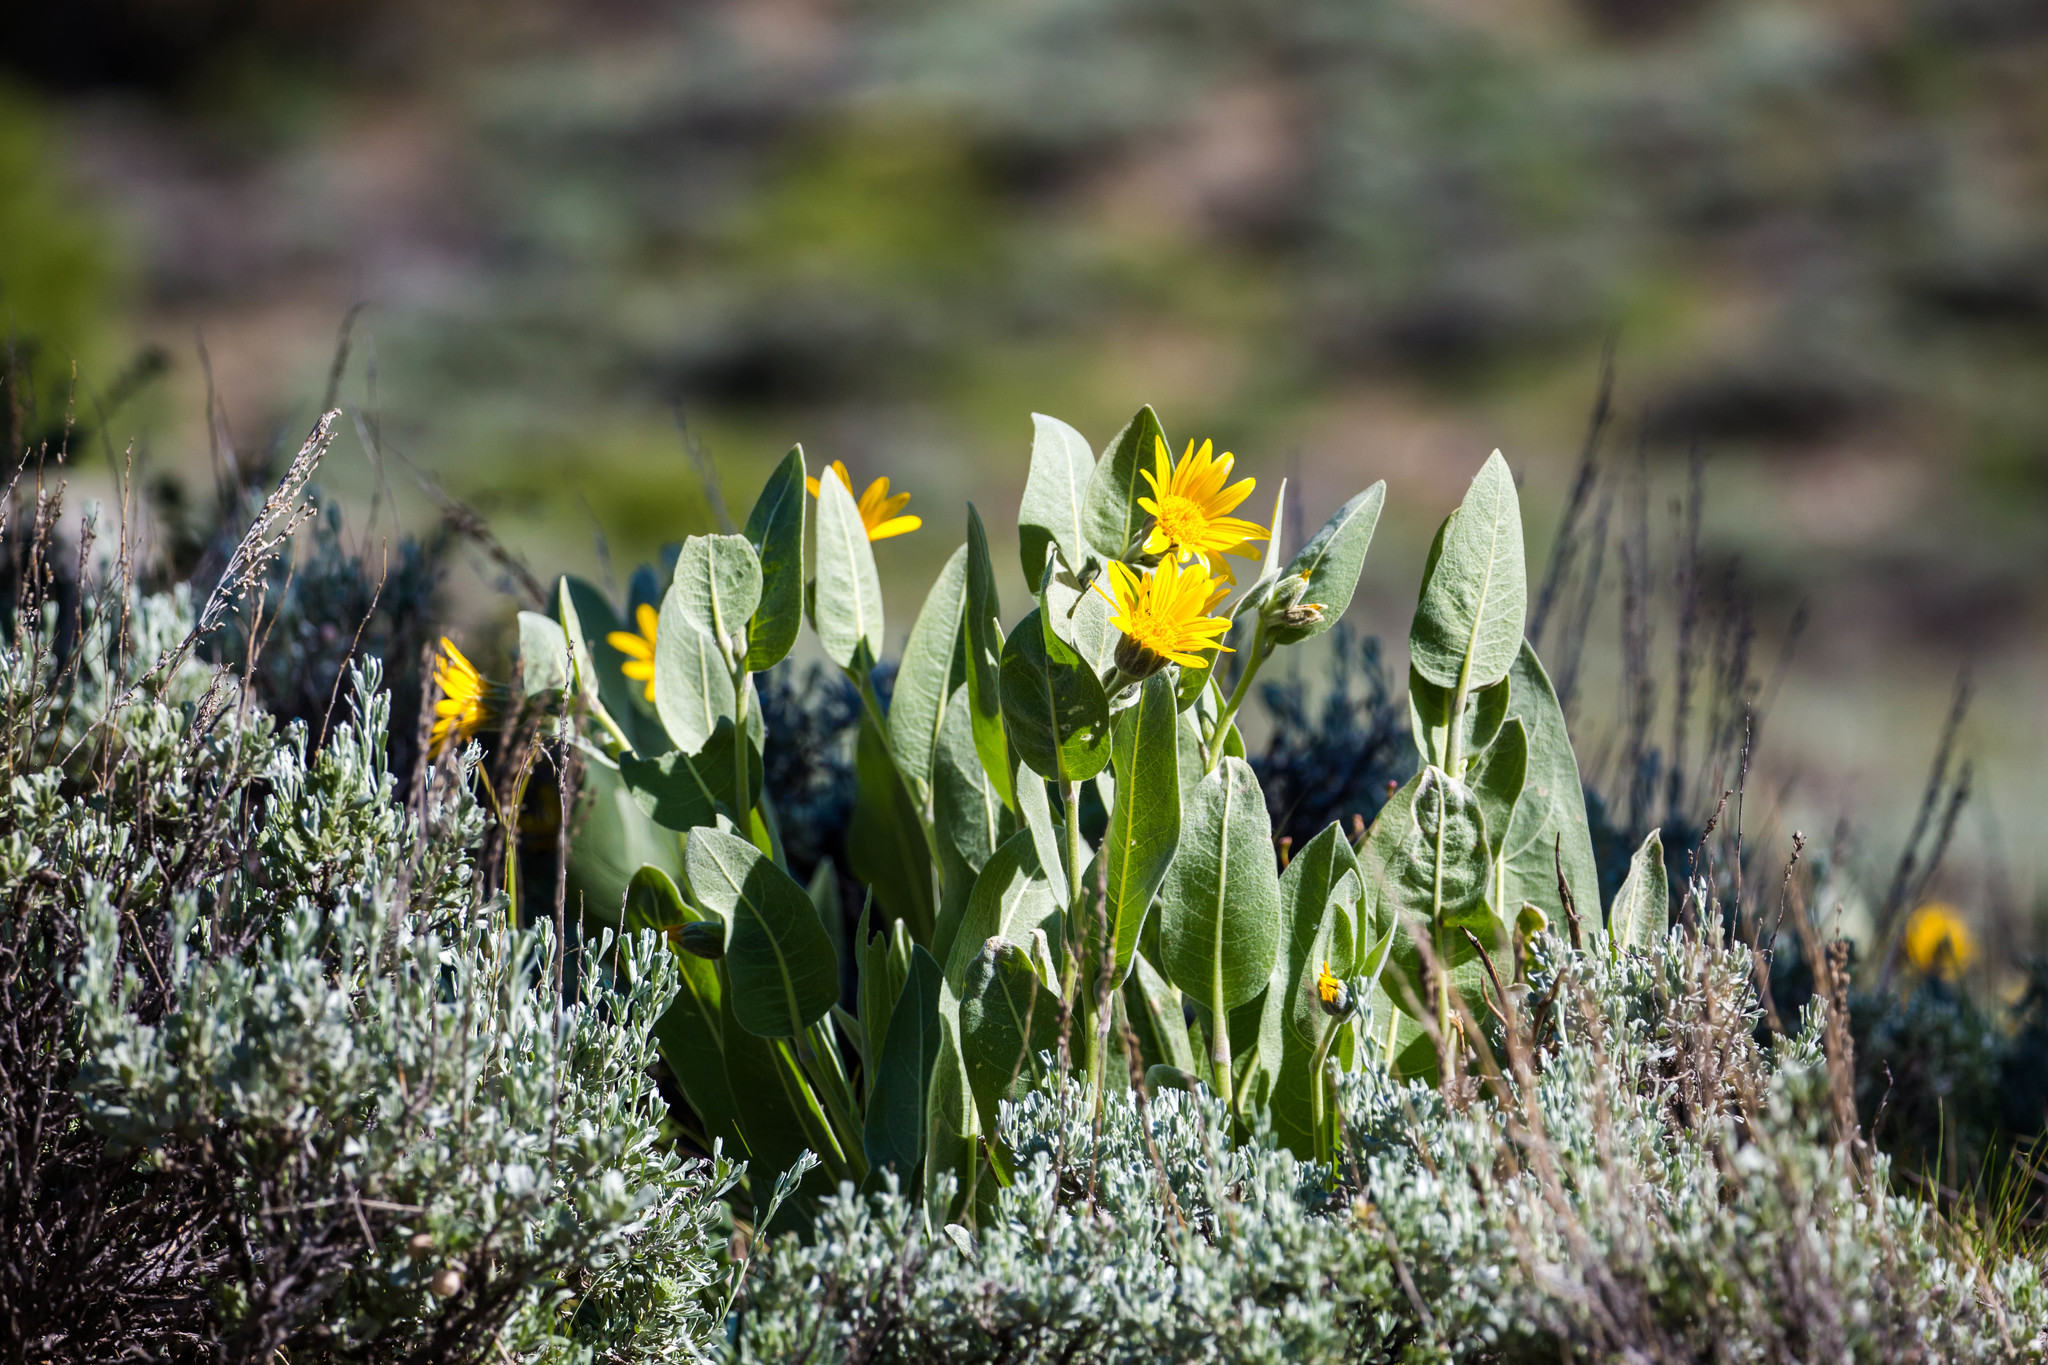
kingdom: Plantae
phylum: Tracheophyta
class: Magnoliopsida
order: Asterales
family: Asteraceae
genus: Wyethia
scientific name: Wyethia mollis
